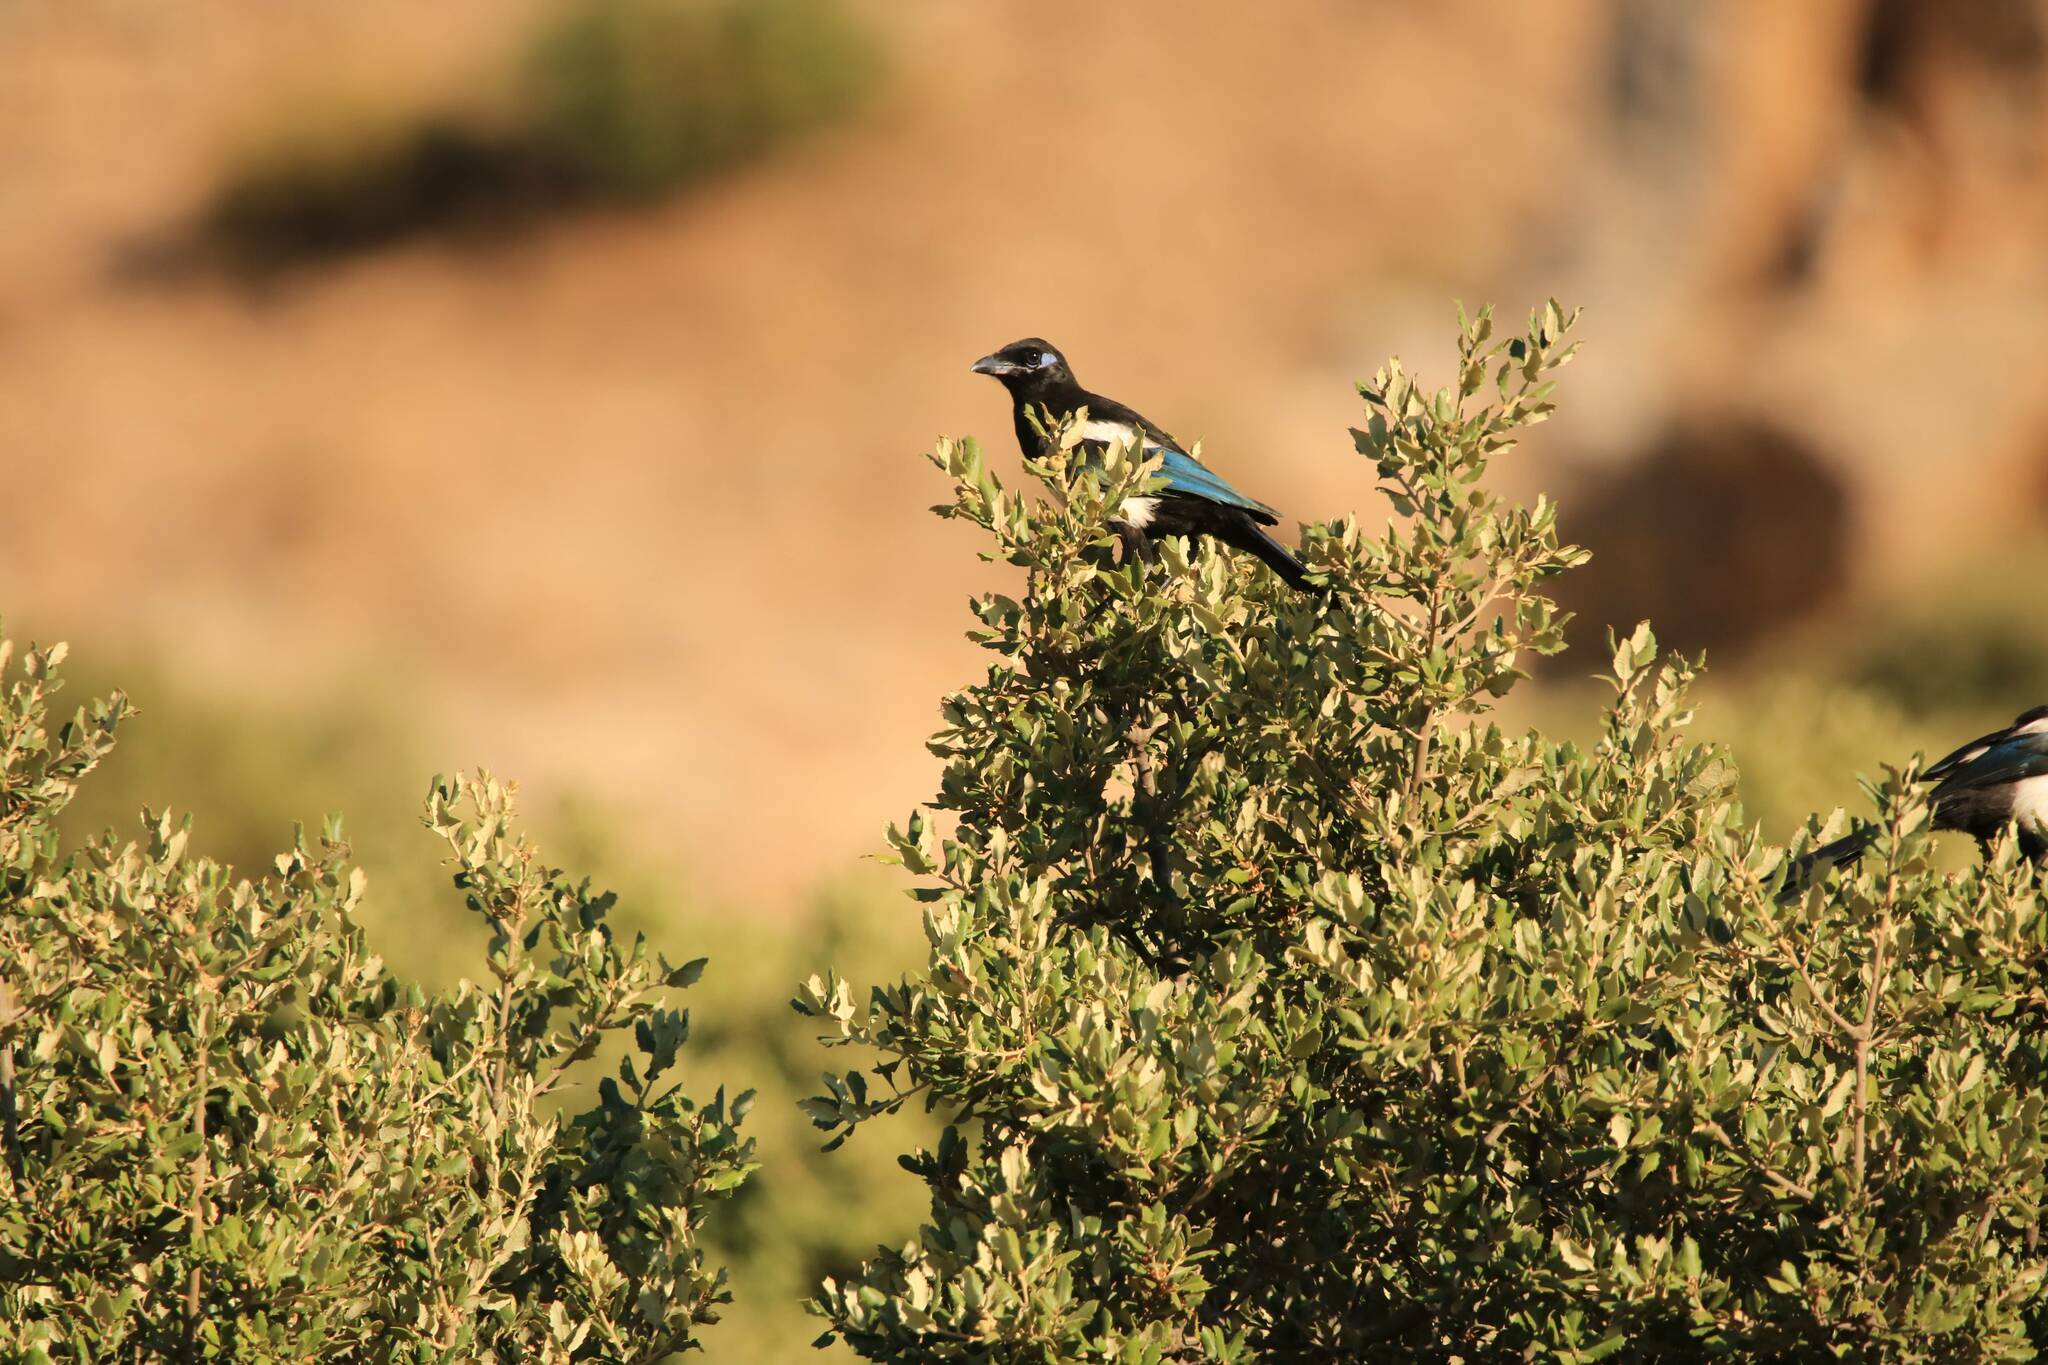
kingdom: Animalia
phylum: Chordata
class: Aves
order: Passeriformes
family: Corvidae
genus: Pica
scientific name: Pica mauritanica
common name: Maghreb magpie
